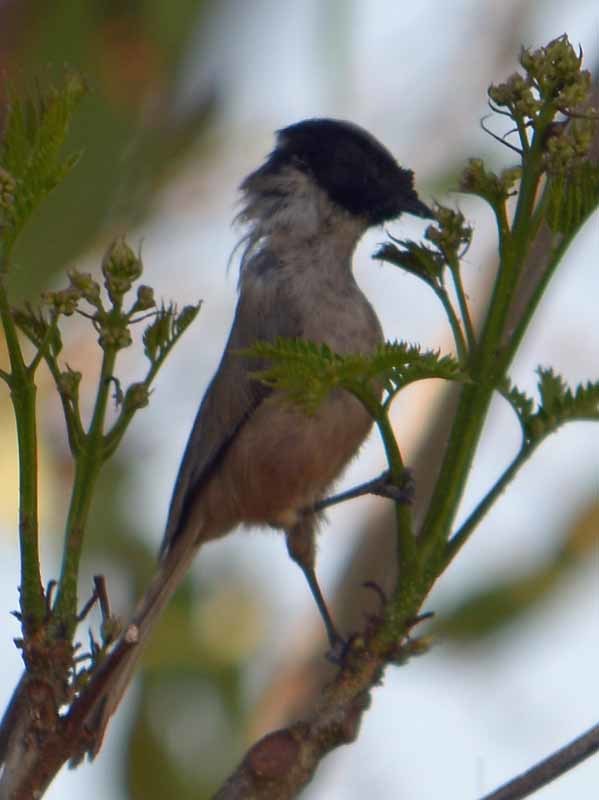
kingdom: Animalia
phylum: Chordata
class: Aves
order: Passeriformes
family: Aegithalidae
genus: Psaltriparus
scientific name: Psaltriparus minimus
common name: American bushtit
